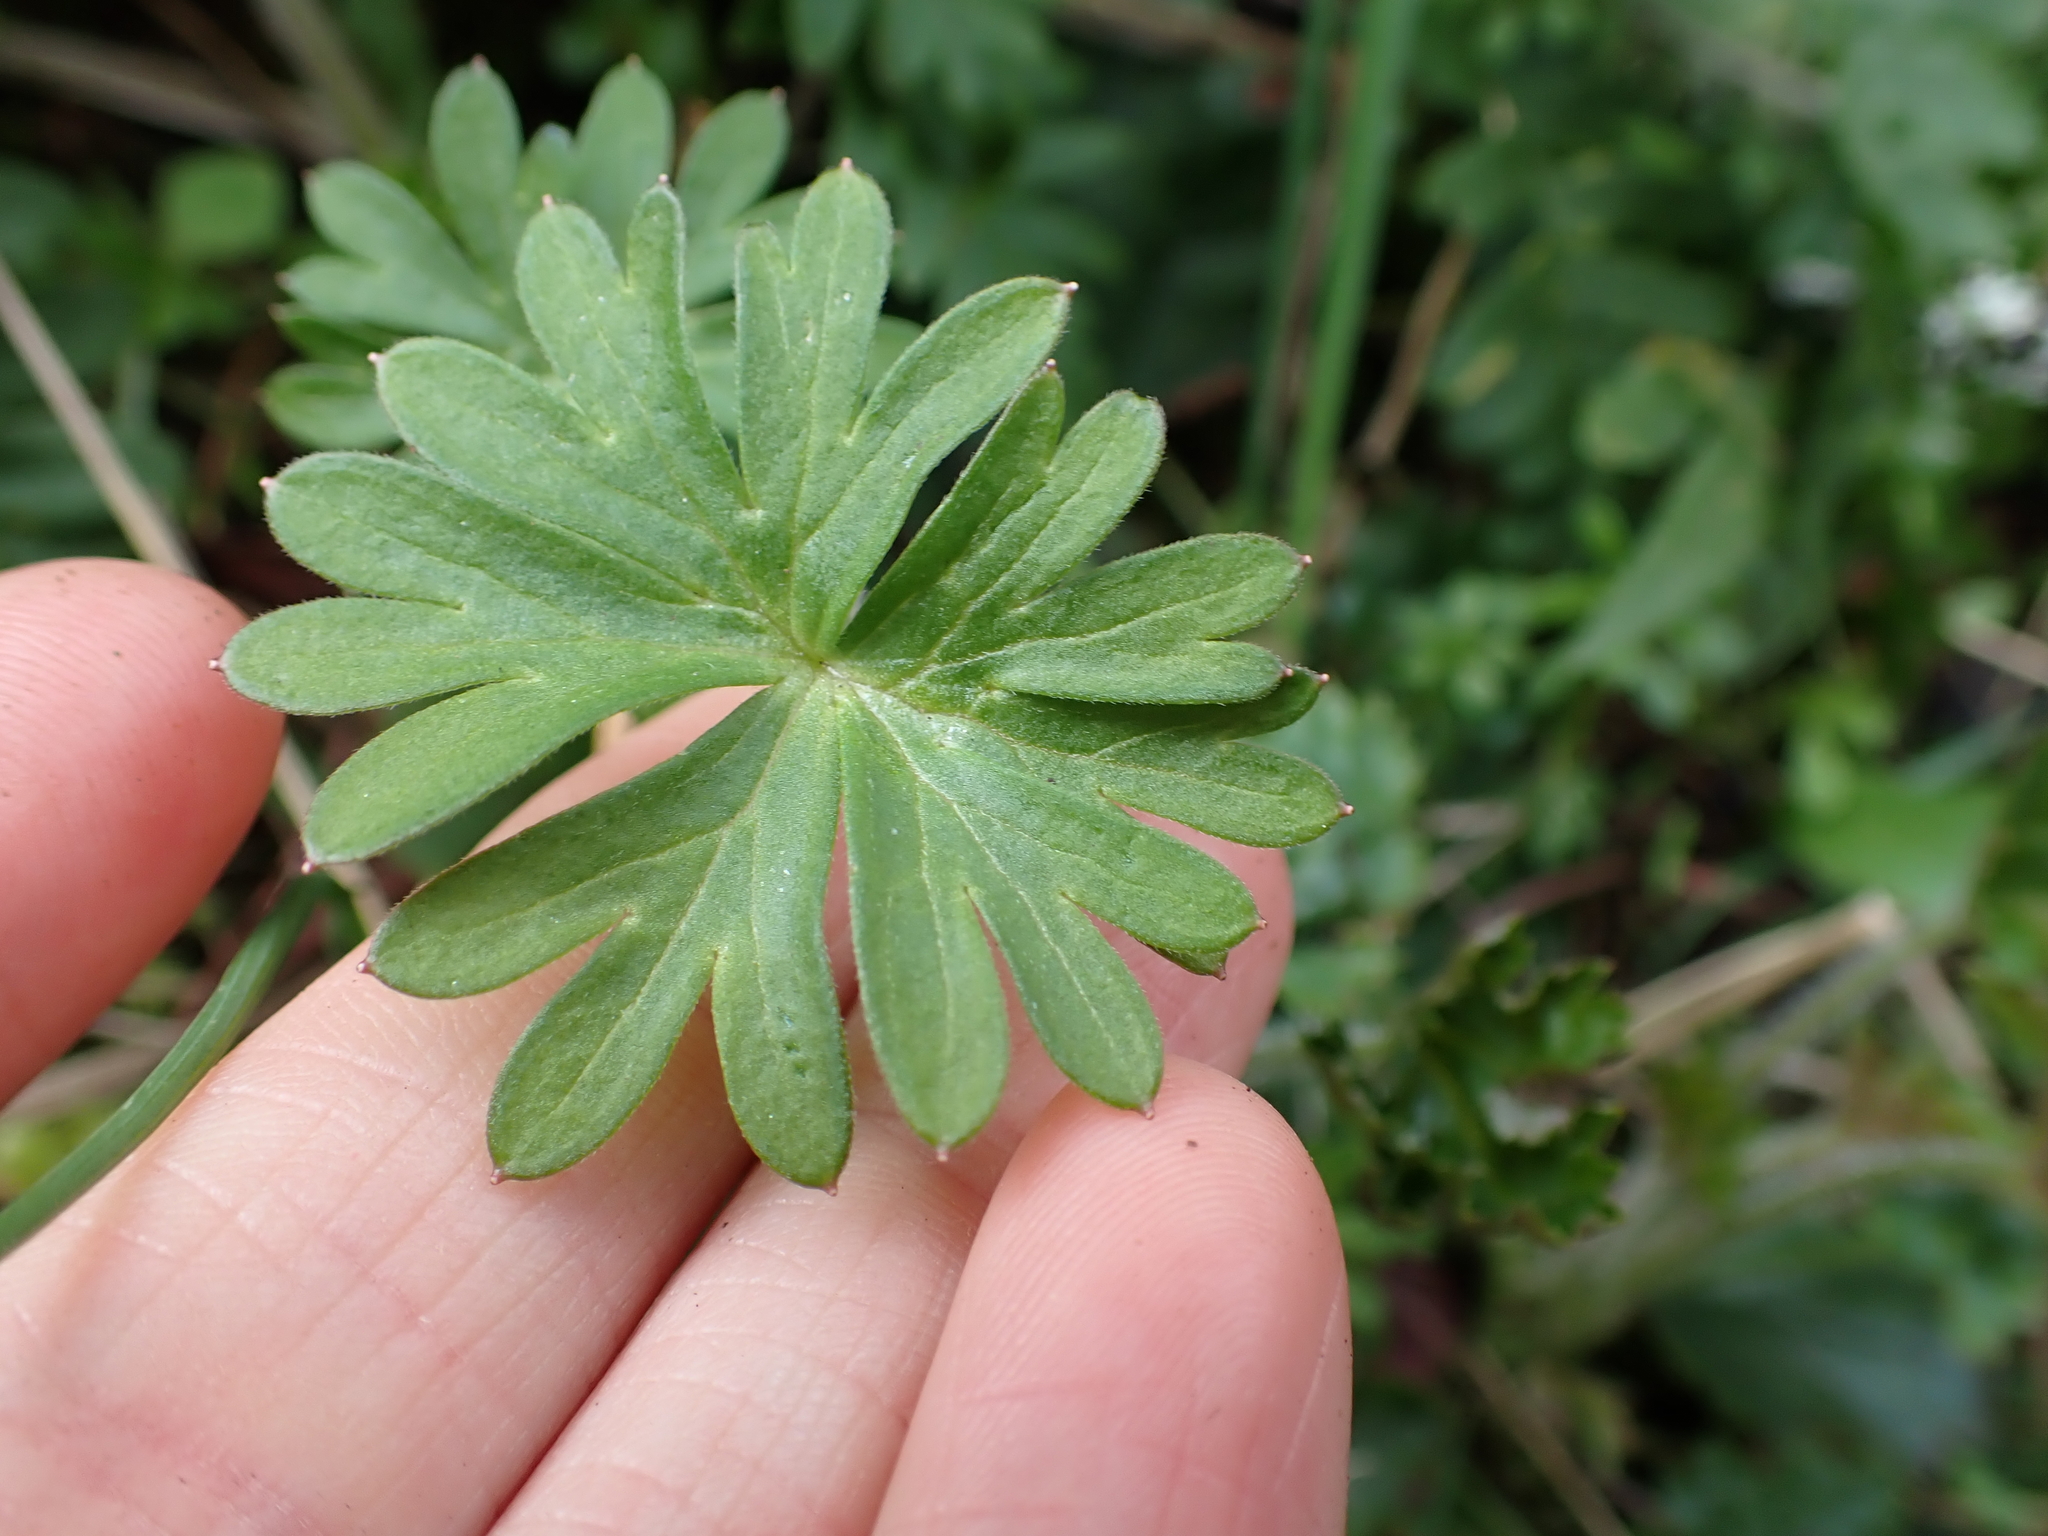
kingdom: Plantae
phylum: Tracheophyta
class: Magnoliopsida
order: Ranunculales
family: Ranunculaceae
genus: Delphinium
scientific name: Delphinium menziesii
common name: Menzies's larkspur
